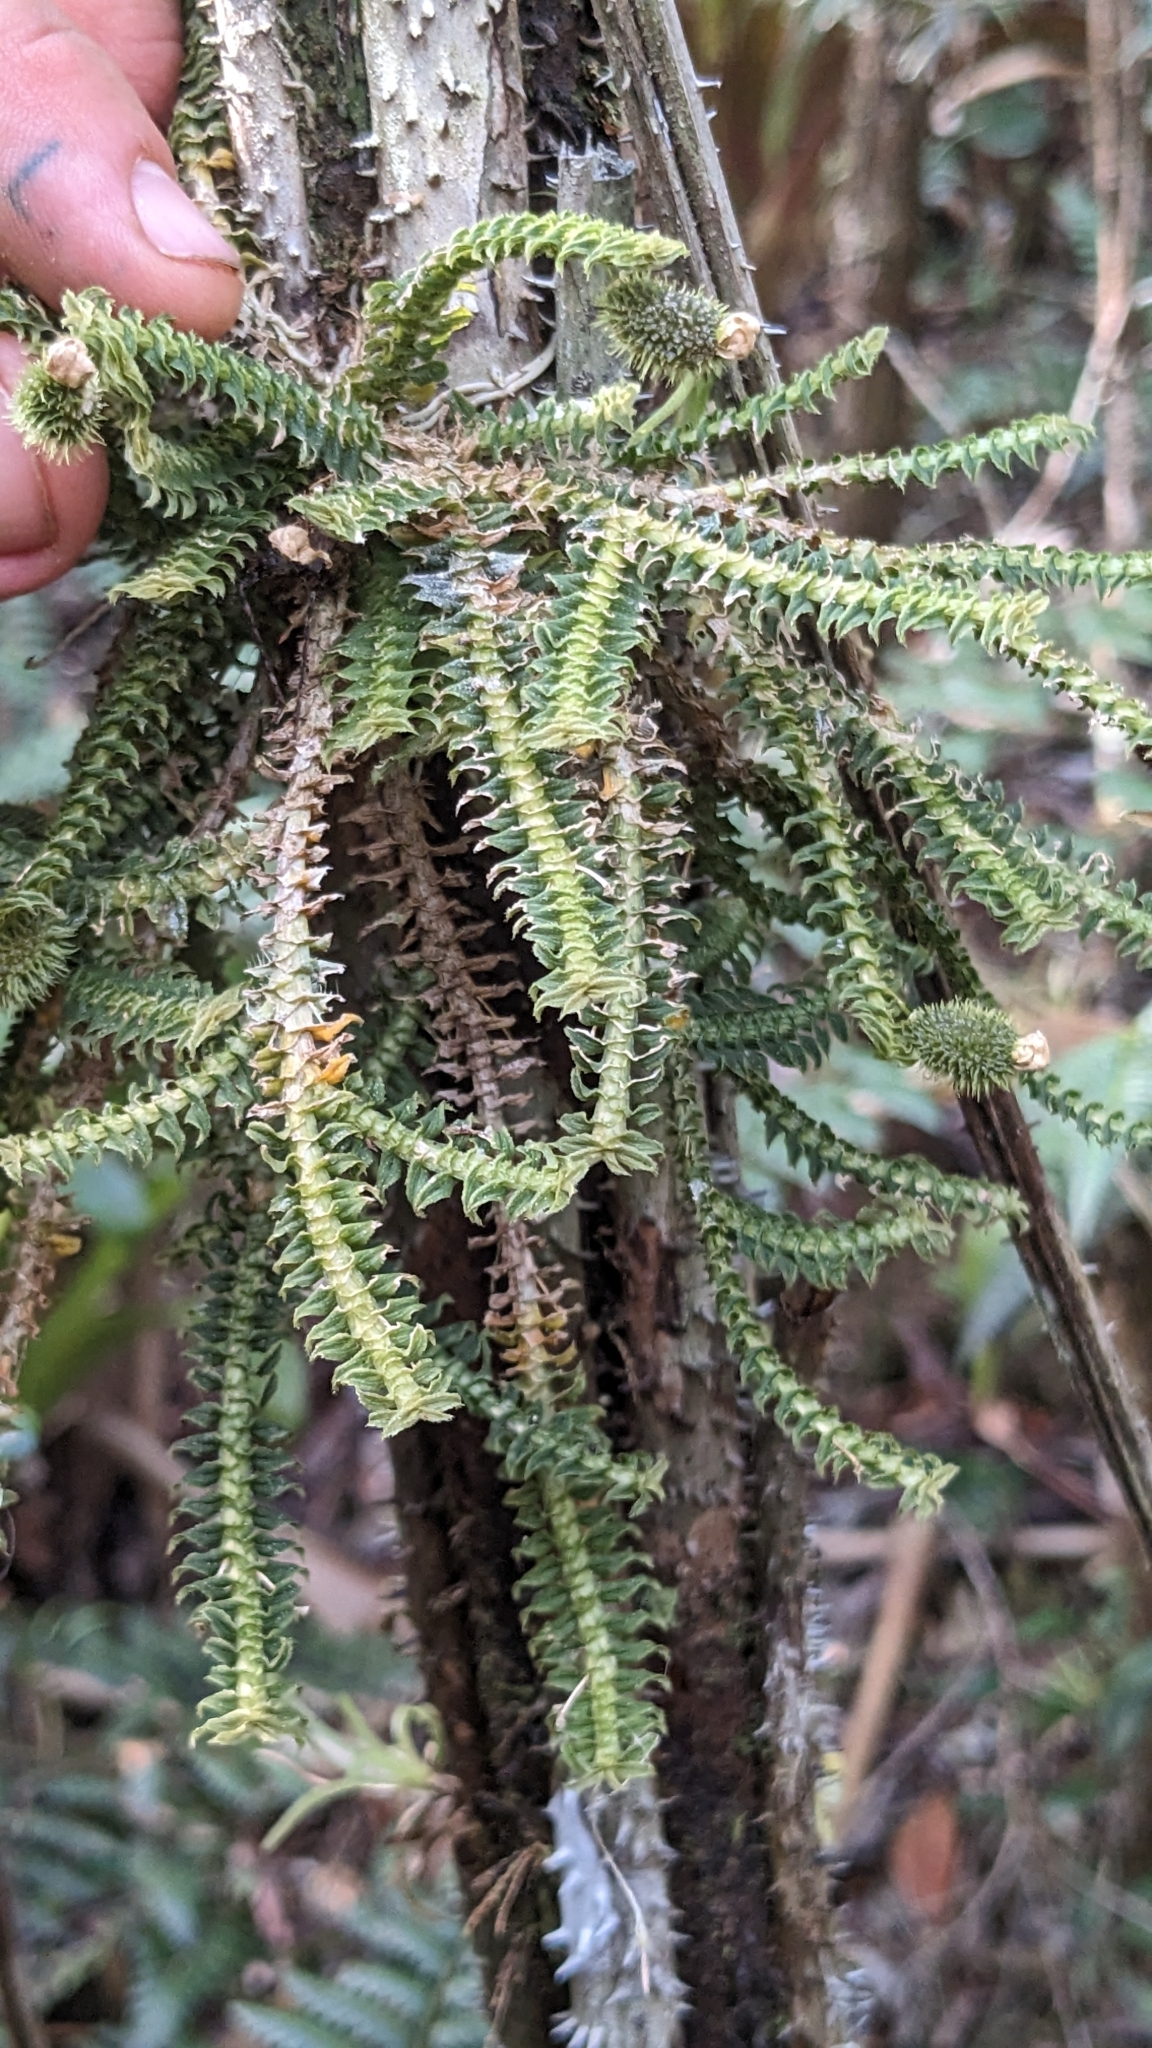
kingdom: Plantae
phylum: Tracheophyta
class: Liliopsida
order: Asparagales
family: Orchidaceae
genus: Dichaea
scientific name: Dichaea hystricina
